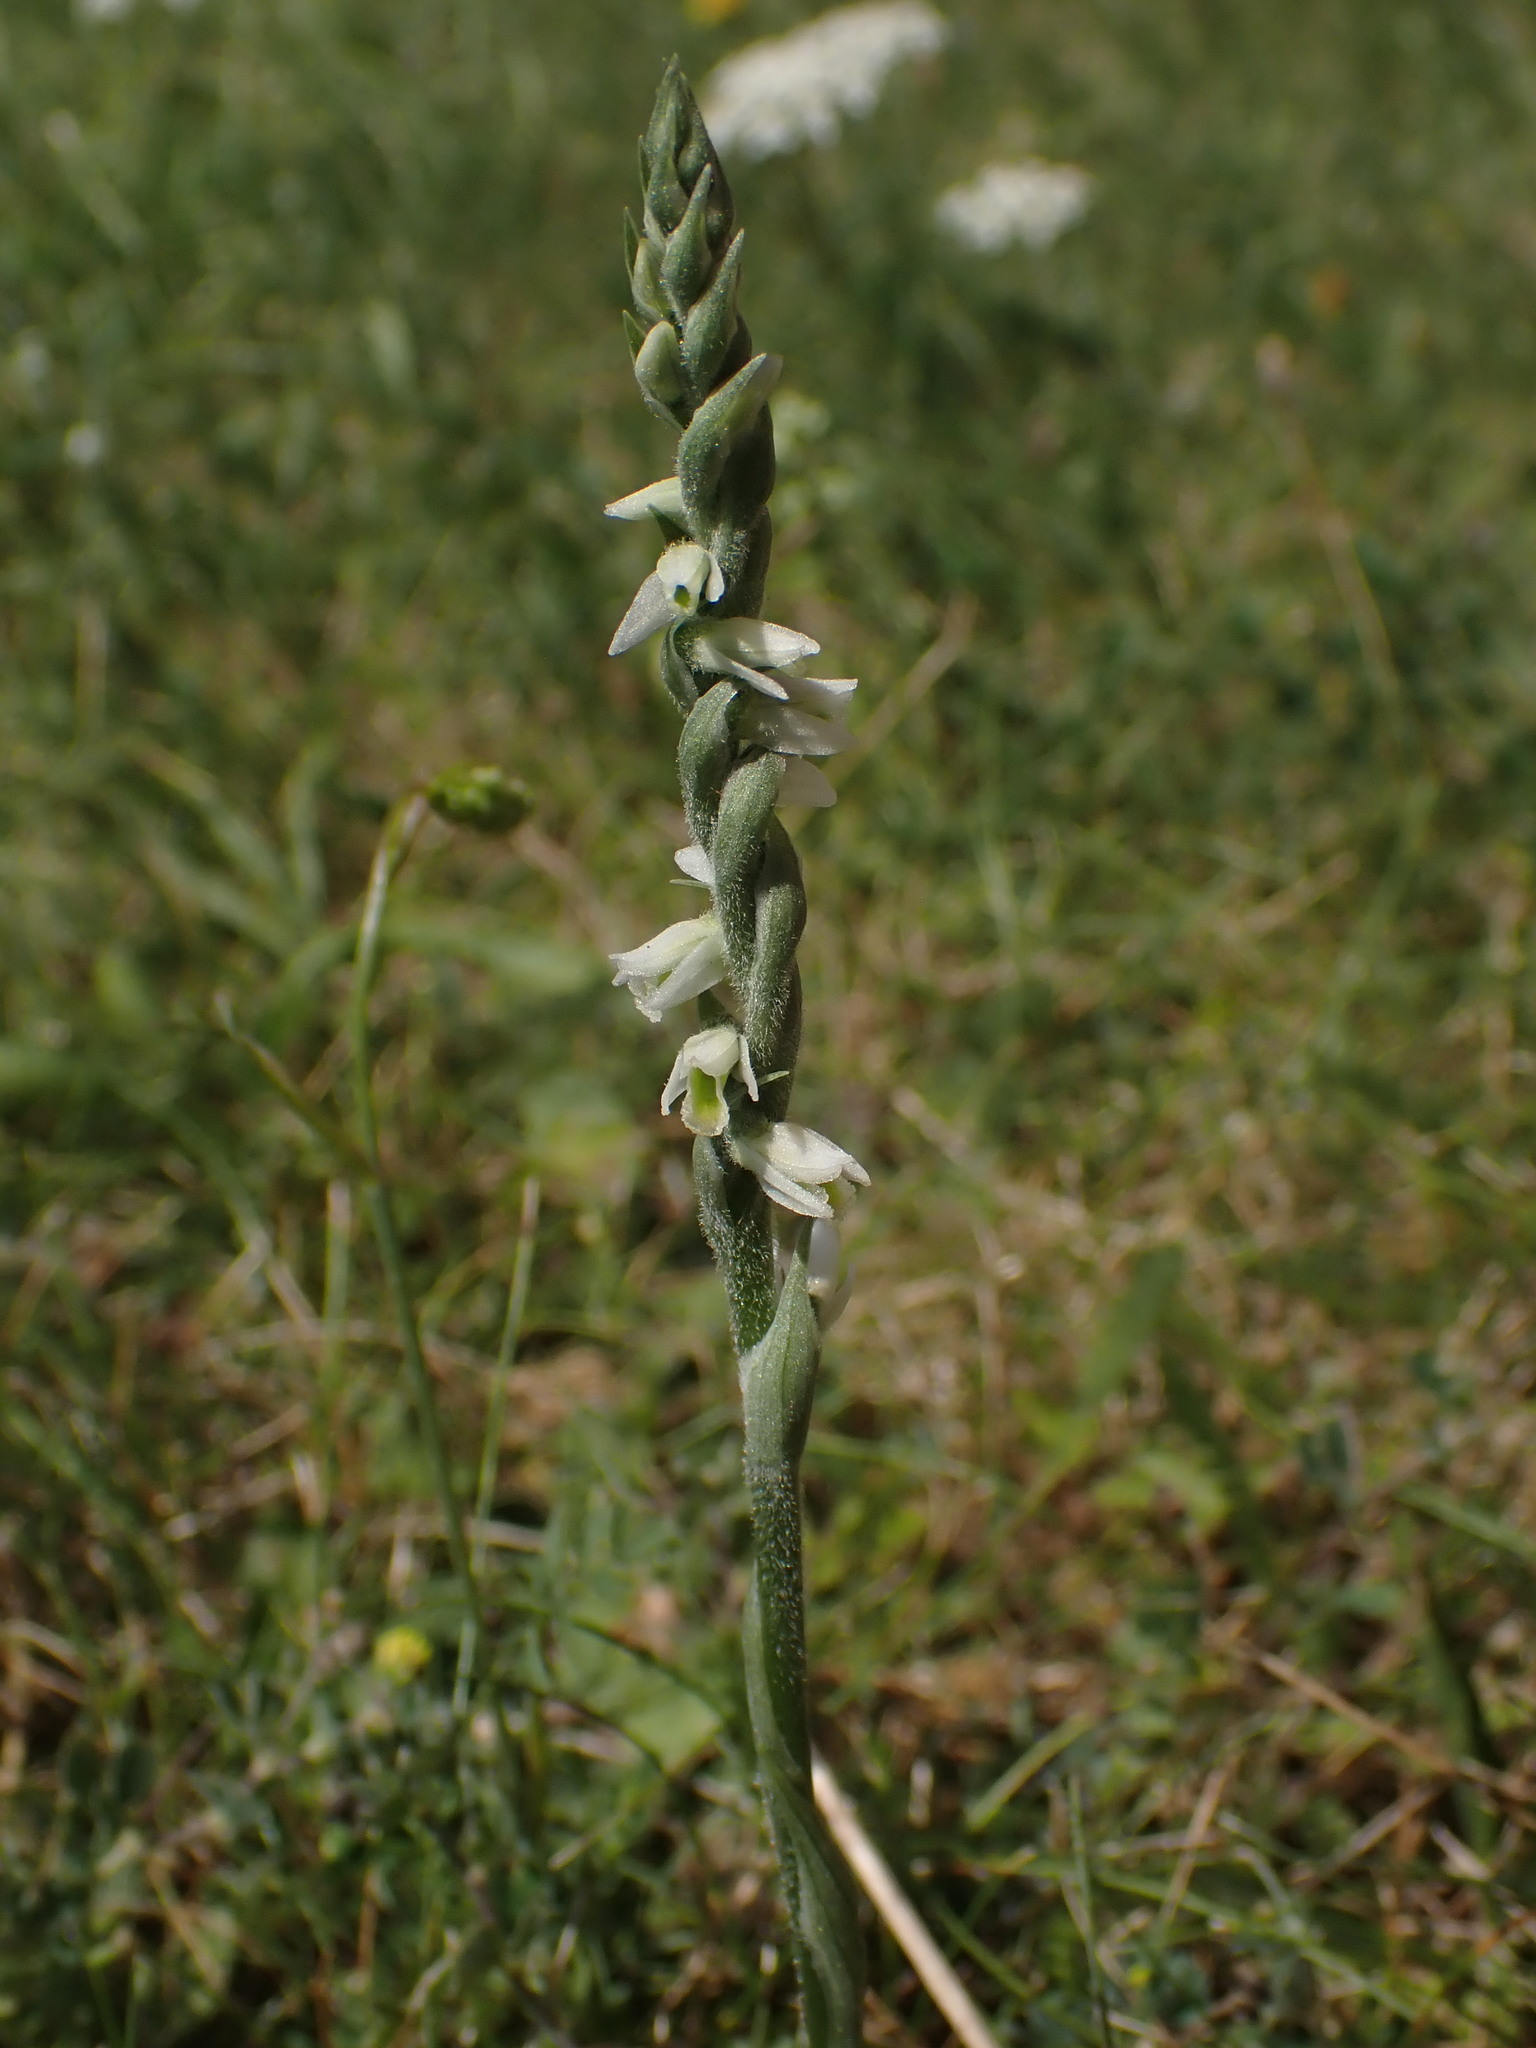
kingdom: Plantae
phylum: Tracheophyta
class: Liliopsida
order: Asparagales
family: Orchidaceae
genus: Spiranthes
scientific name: Spiranthes spiralis
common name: Autumn lady's-tresses
